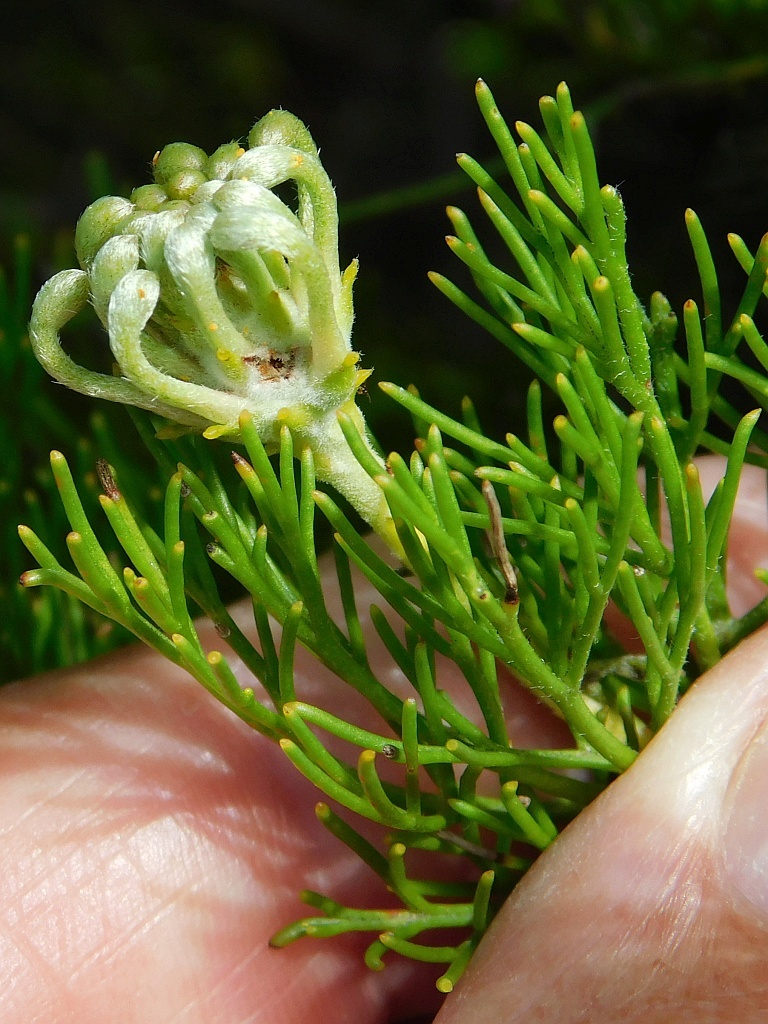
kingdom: Plantae
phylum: Tracheophyta
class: Magnoliopsida
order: Proteales
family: Proteaceae
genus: Serruria
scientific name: Serruria
